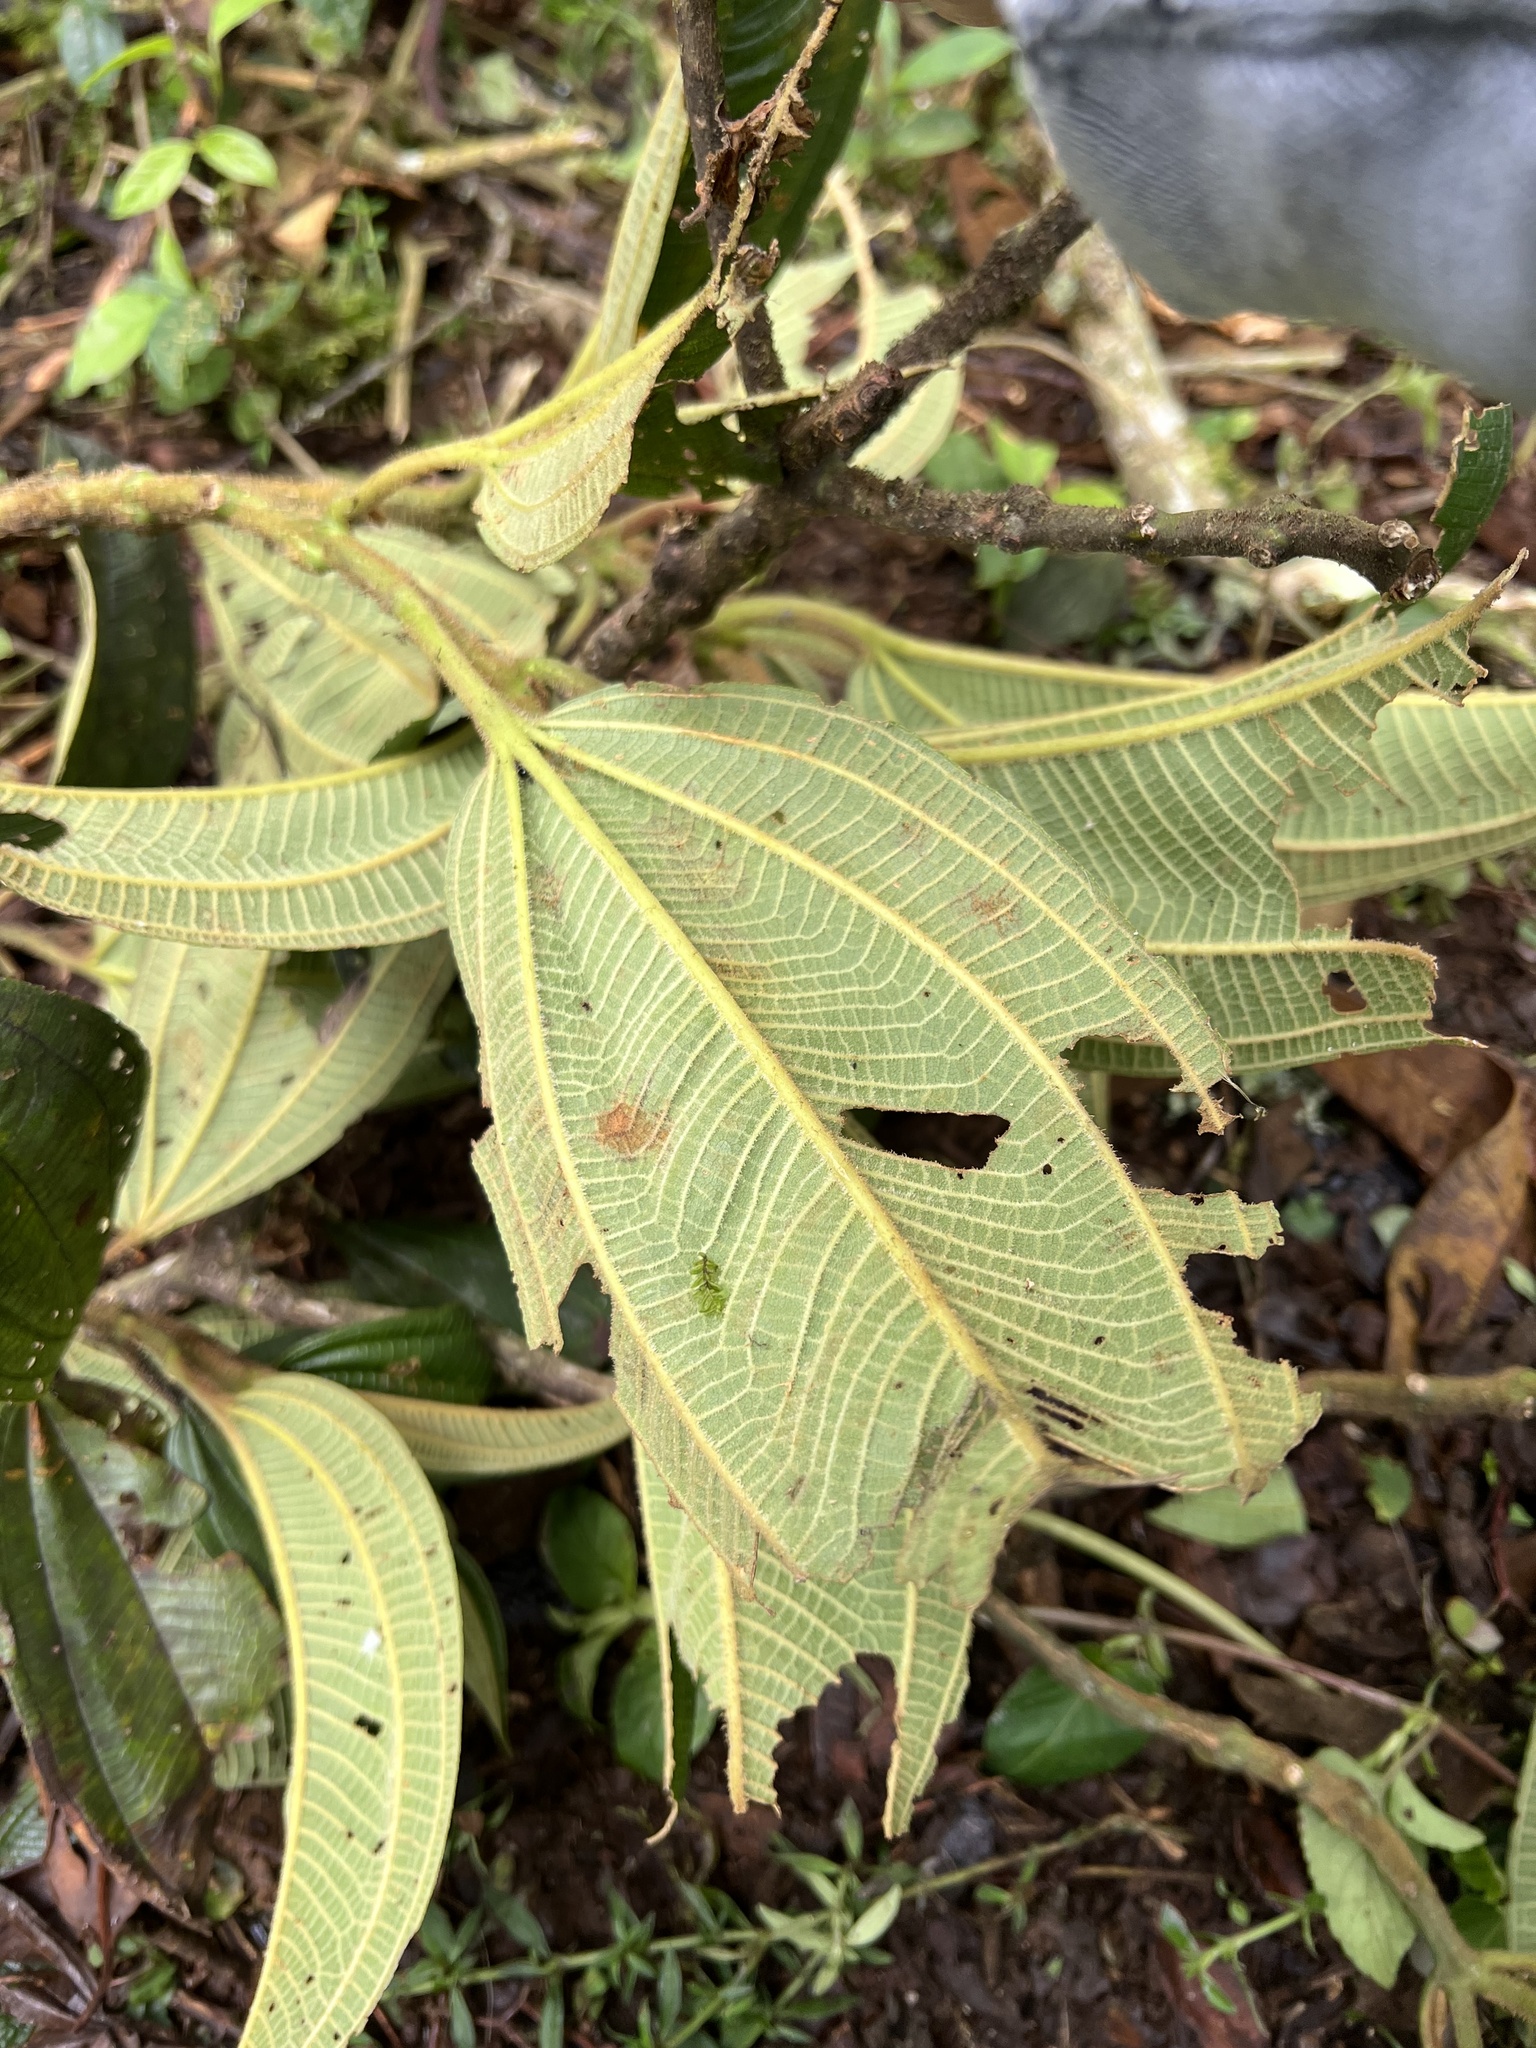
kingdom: Plantae
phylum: Tracheophyta
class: Magnoliopsida
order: Myrtales
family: Melastomataceae
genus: Miconia
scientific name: Miconia plethorica
